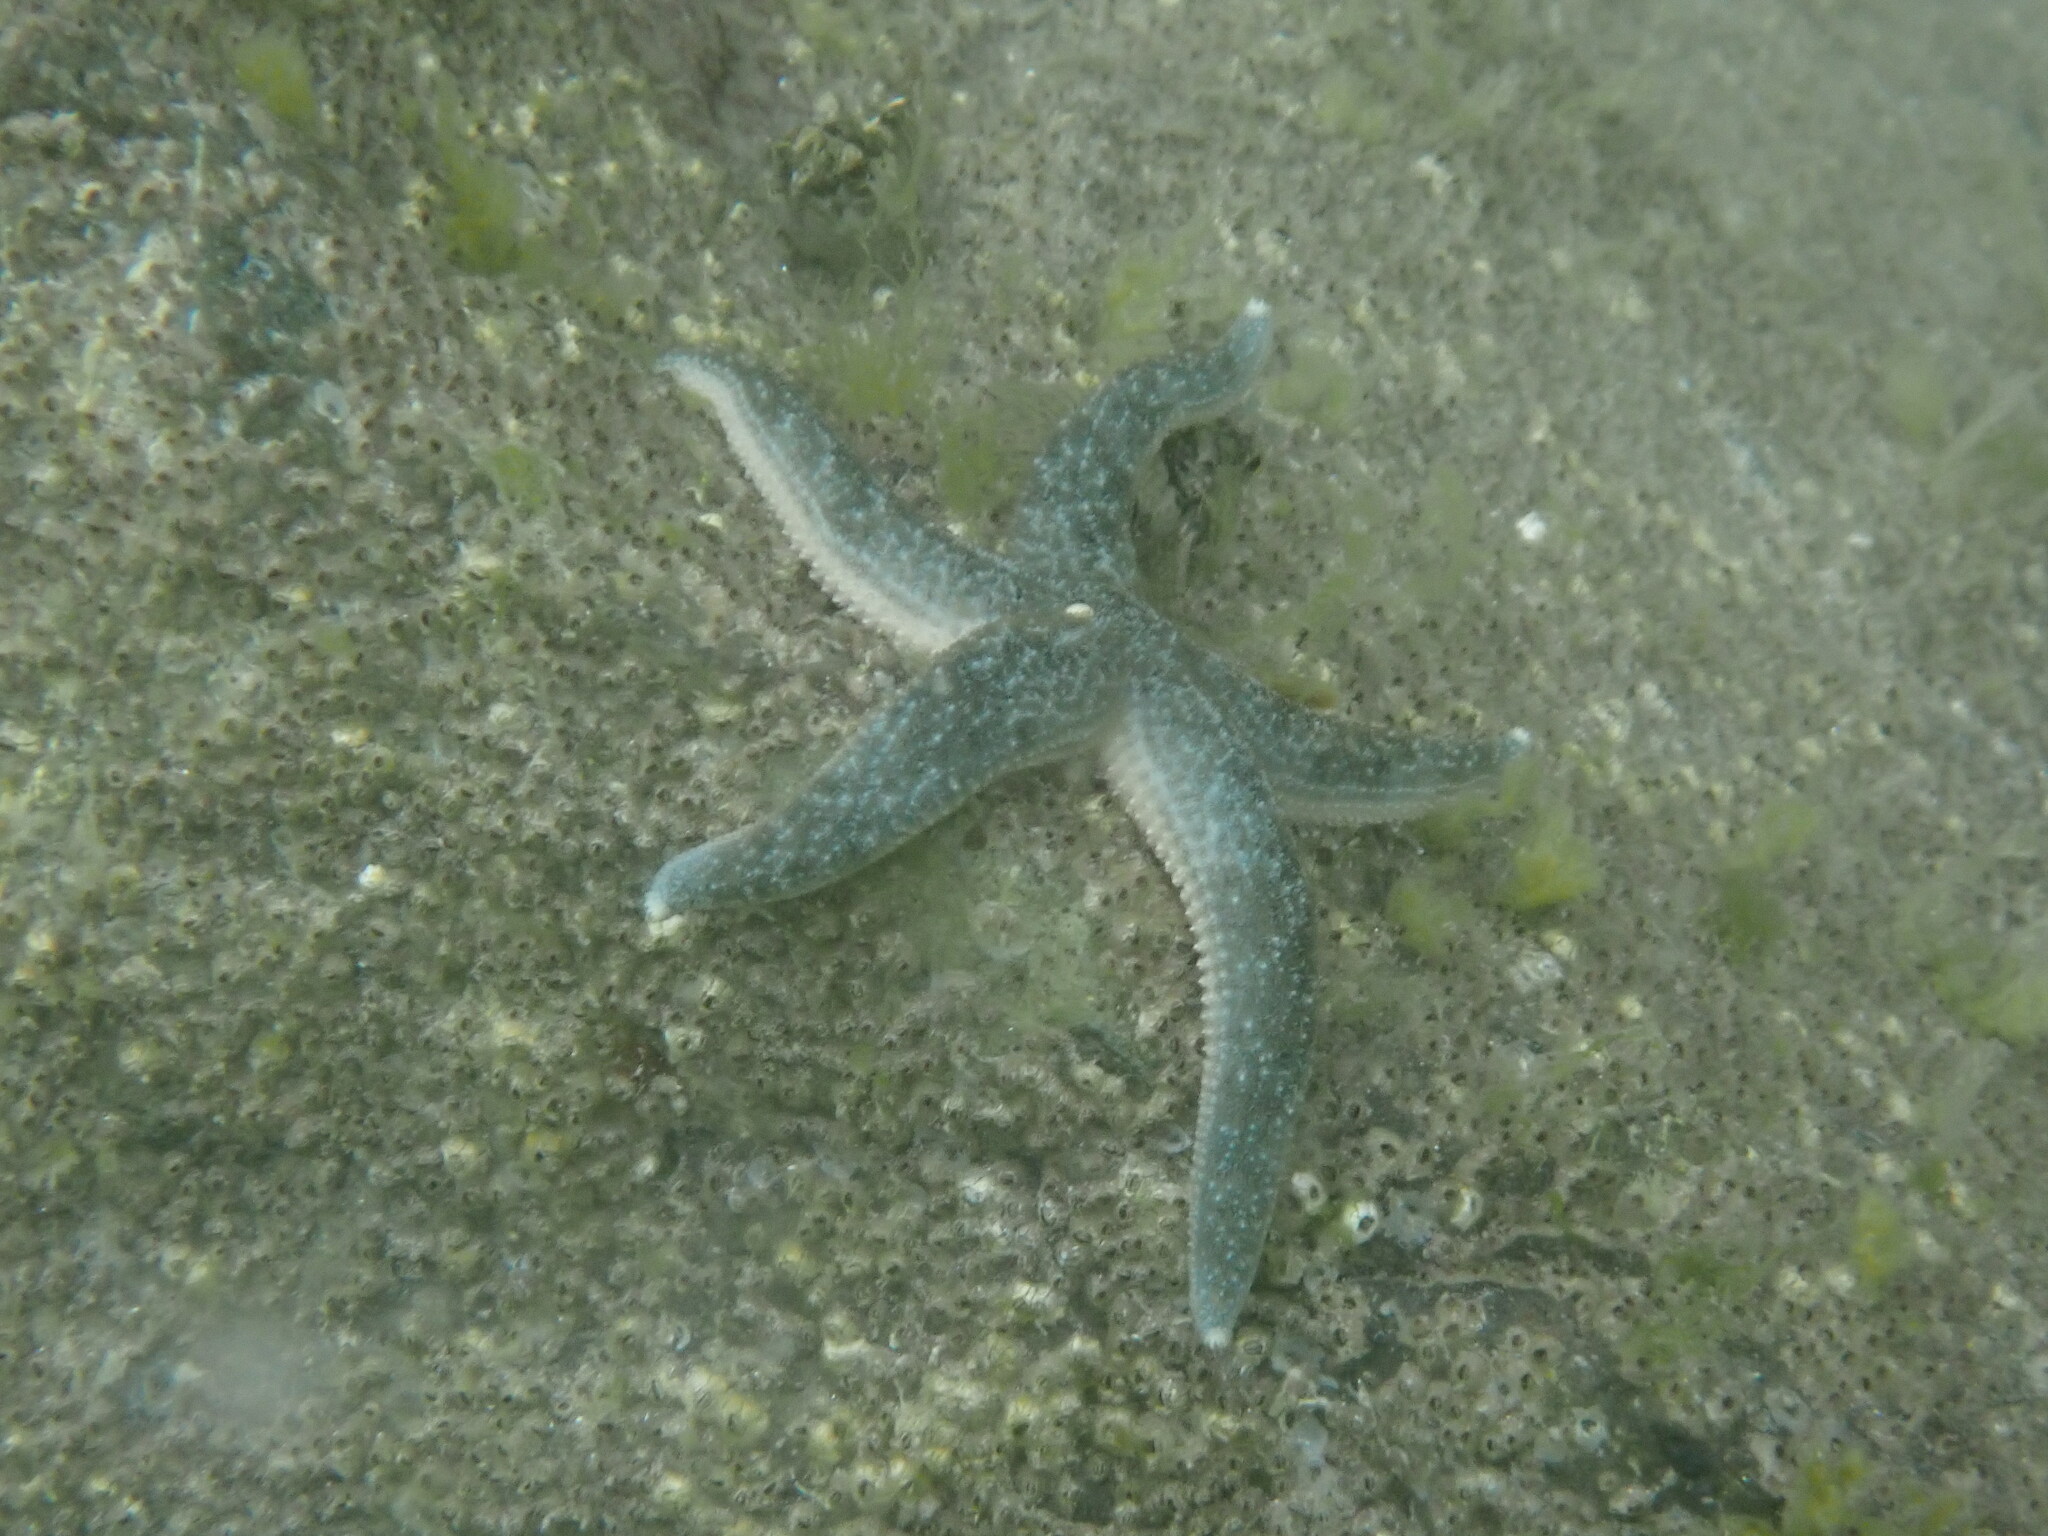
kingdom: Animalia
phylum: Echinodermata
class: Asteroidea
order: Forcipulatida
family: Asteriidae
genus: Evasterias
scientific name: Evasterias troschelii
